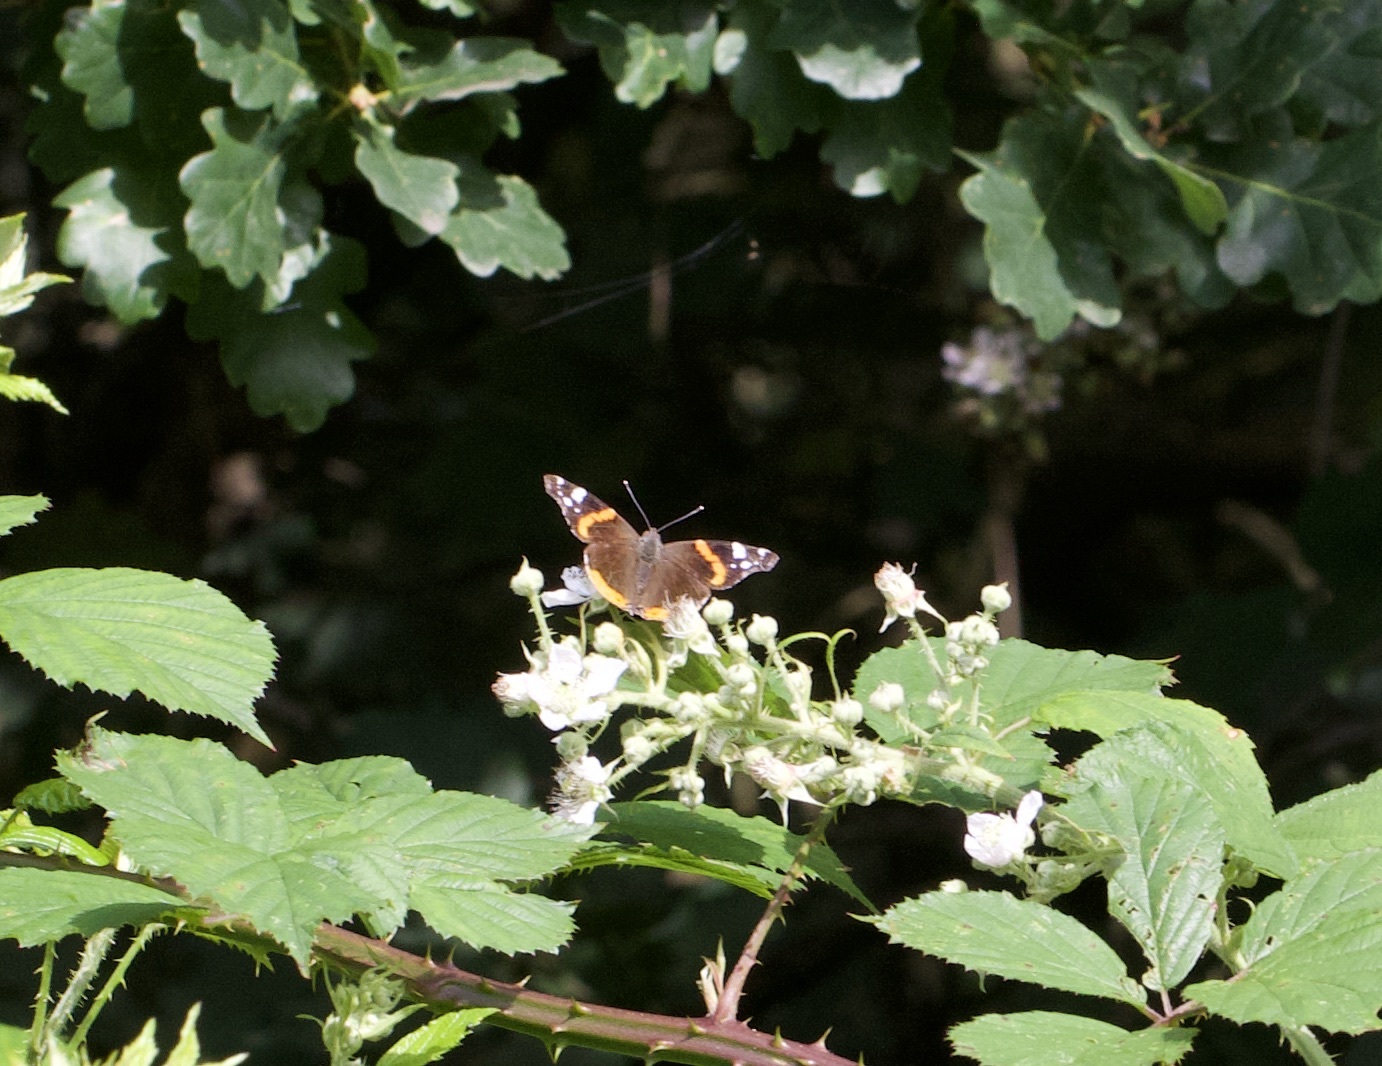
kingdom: Animalia
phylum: Arthropoda
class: Insecta
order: Lepidoptera
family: Nymphalidae
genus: Vanessa
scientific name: Vanessa atalanta
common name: Red admiral
